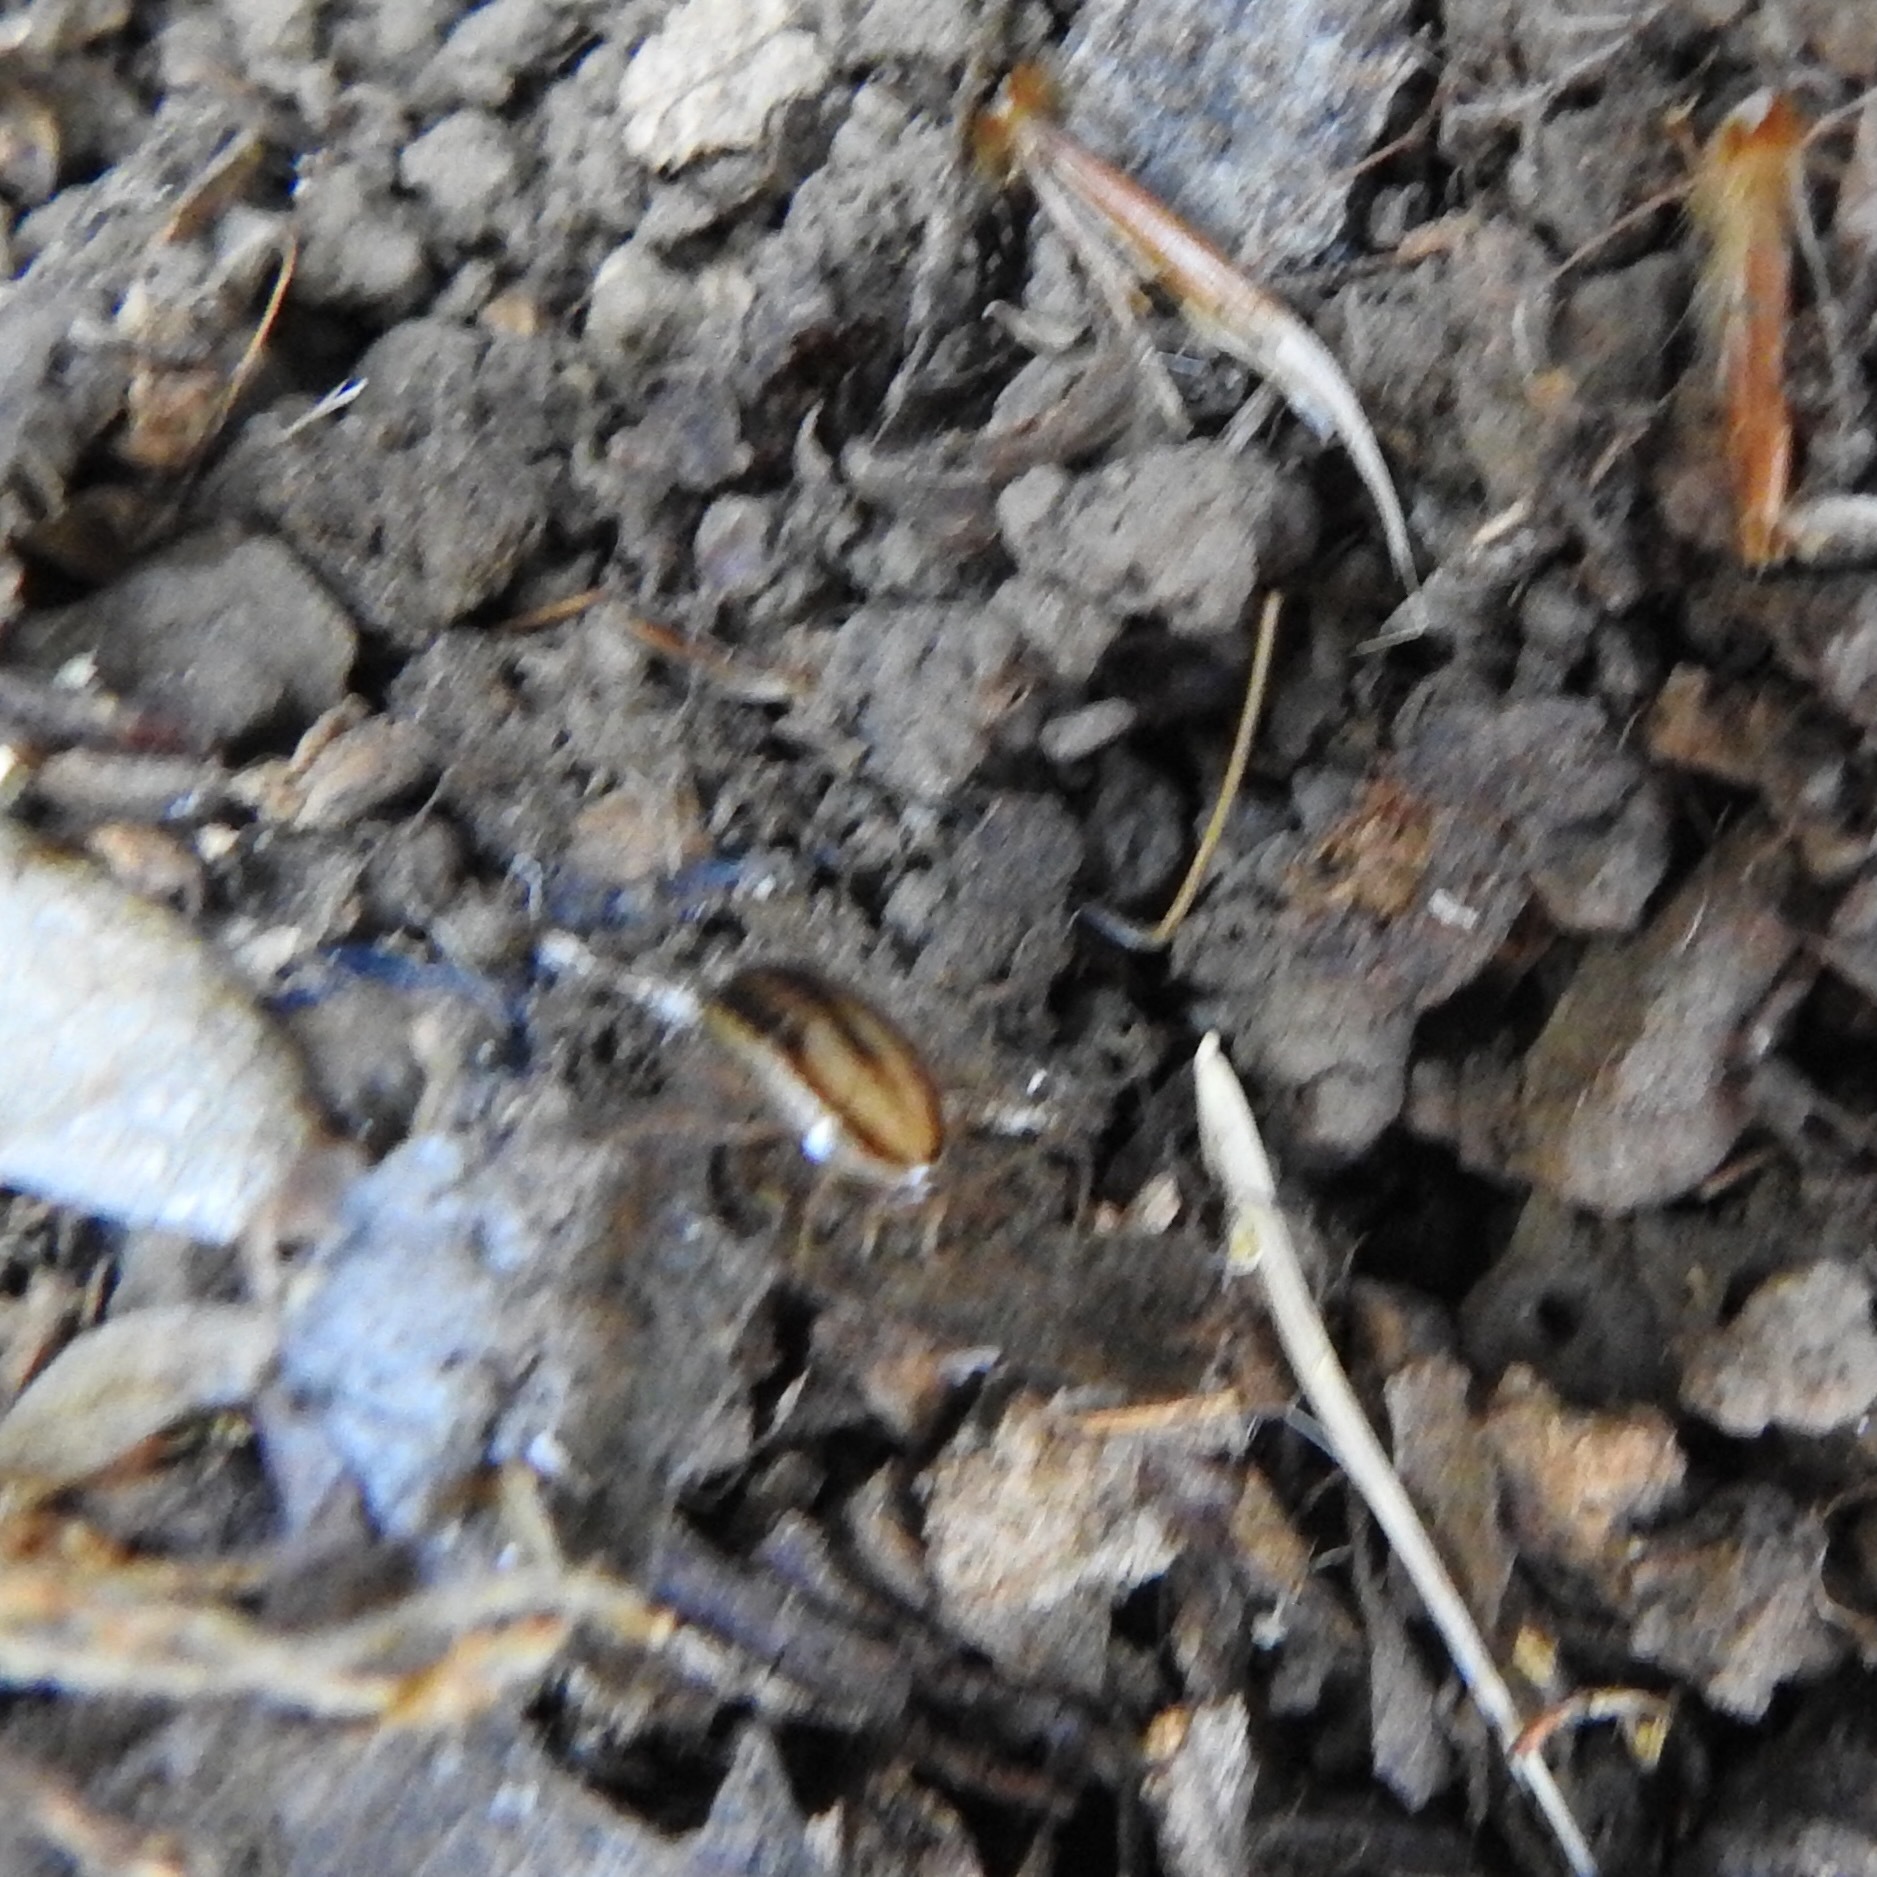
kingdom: Animalia
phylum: Arthropoda
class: Insecta
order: Blattodea
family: Ectobiidae
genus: Luridiblatta
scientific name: Luridiblatta trivittata
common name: Three-lined cockroach
